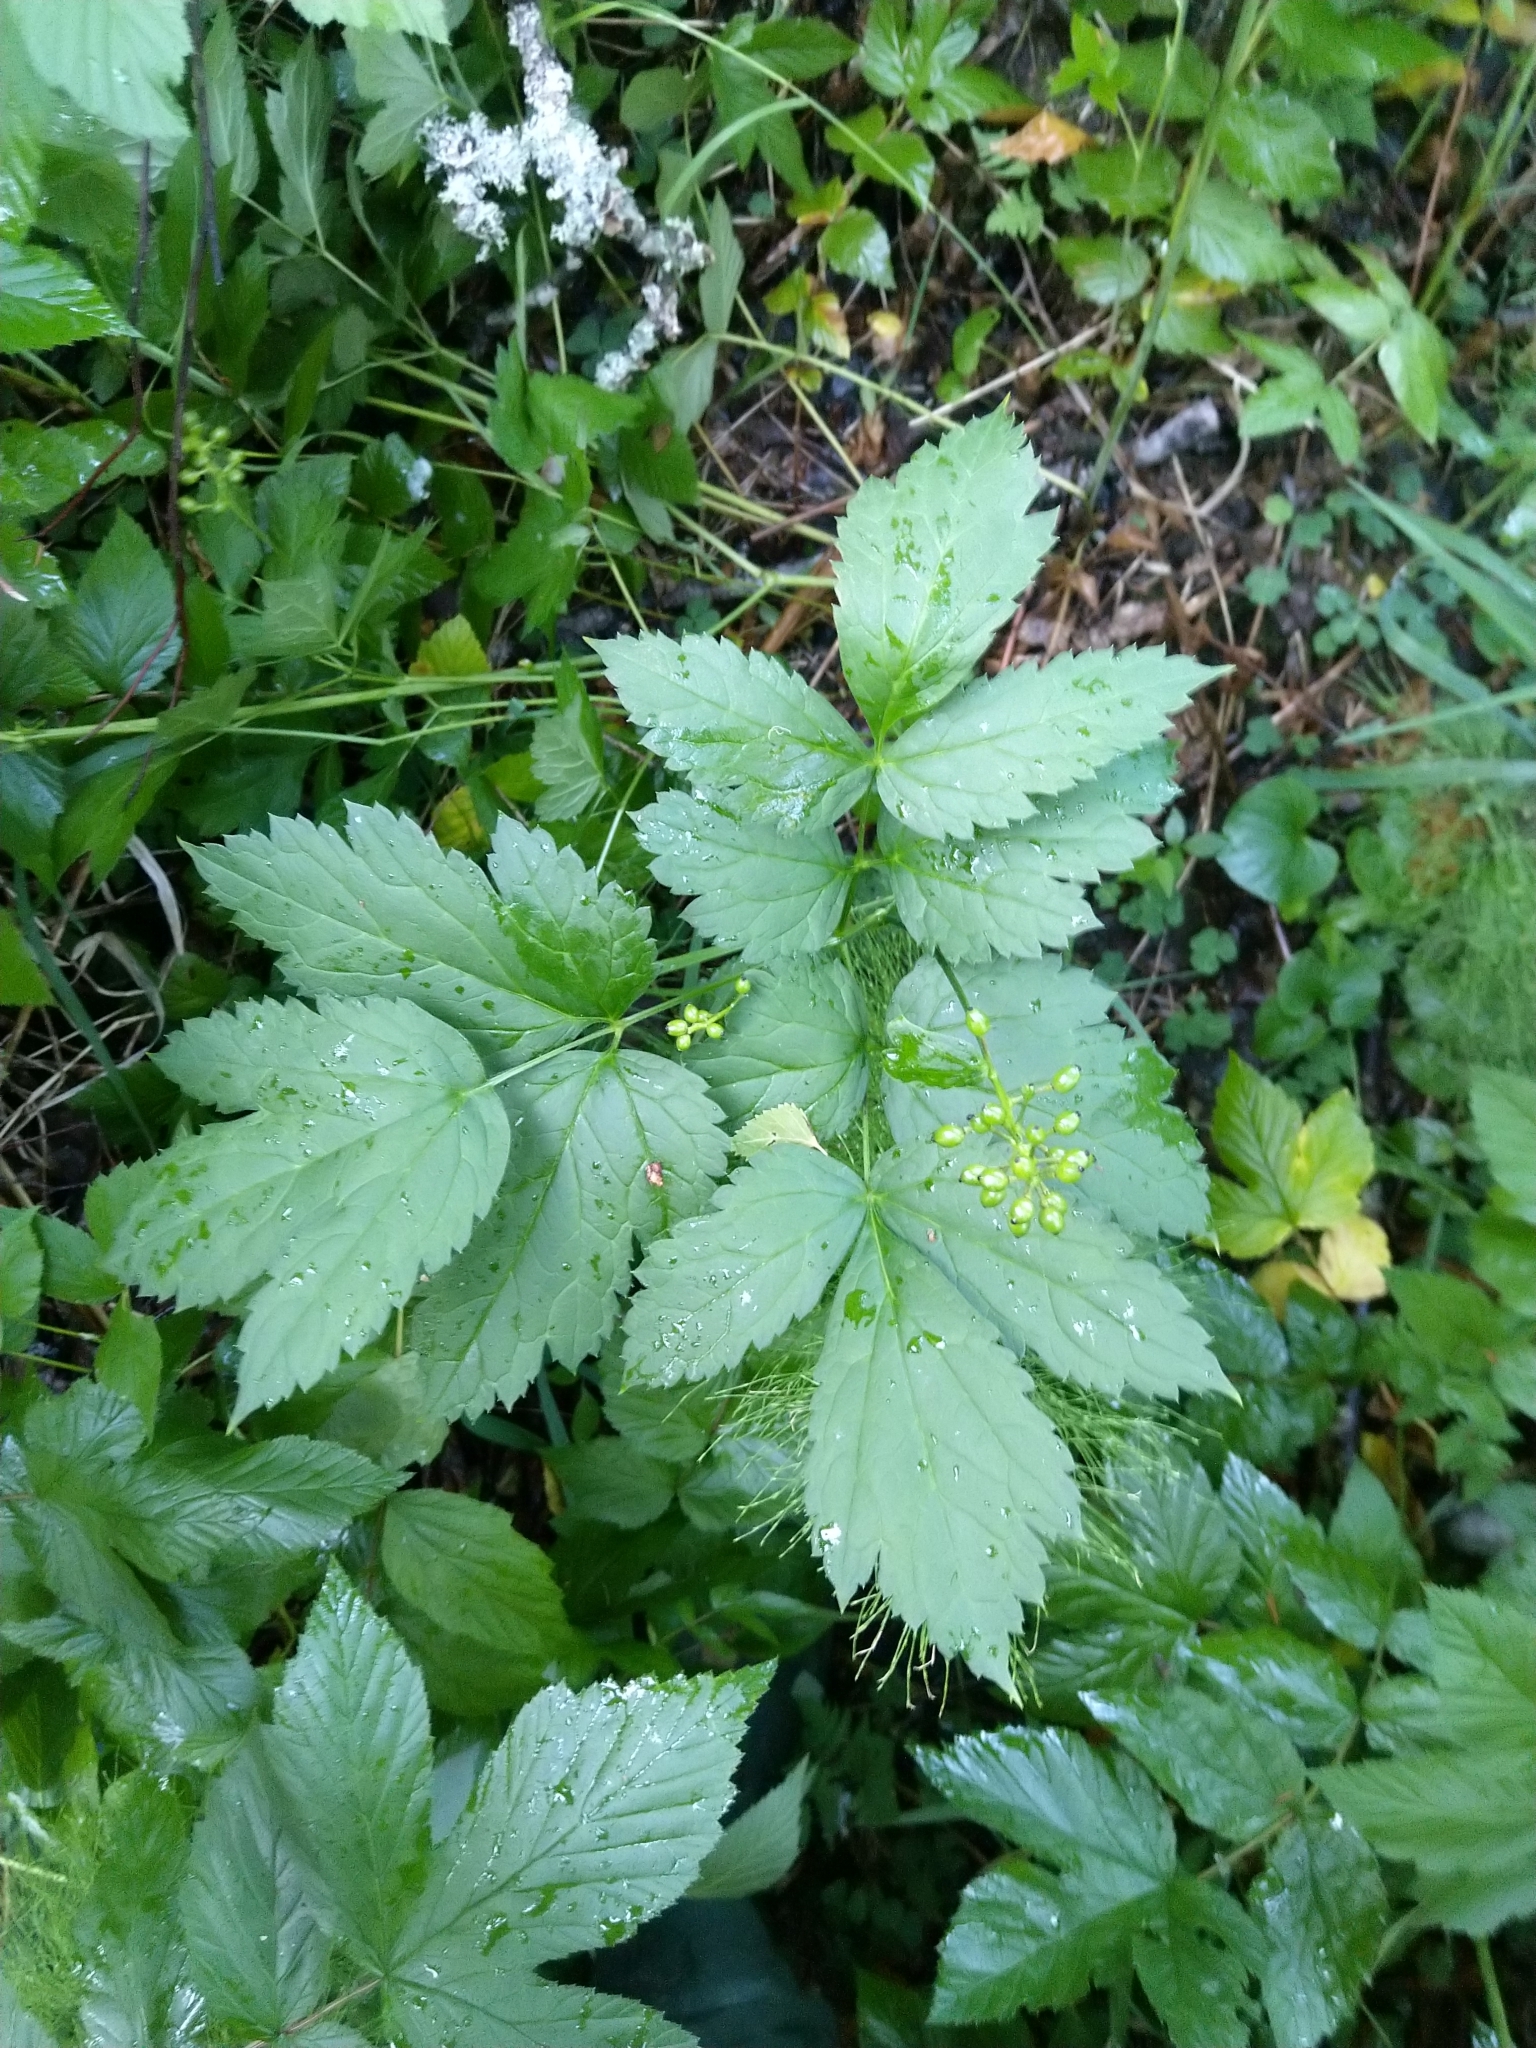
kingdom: Plantae
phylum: Tracheophyta
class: Magnoliopsida
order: Ranunculales
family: Ranunculaceae
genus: Actaea
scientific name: Actaea spicata
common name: Baneberry
